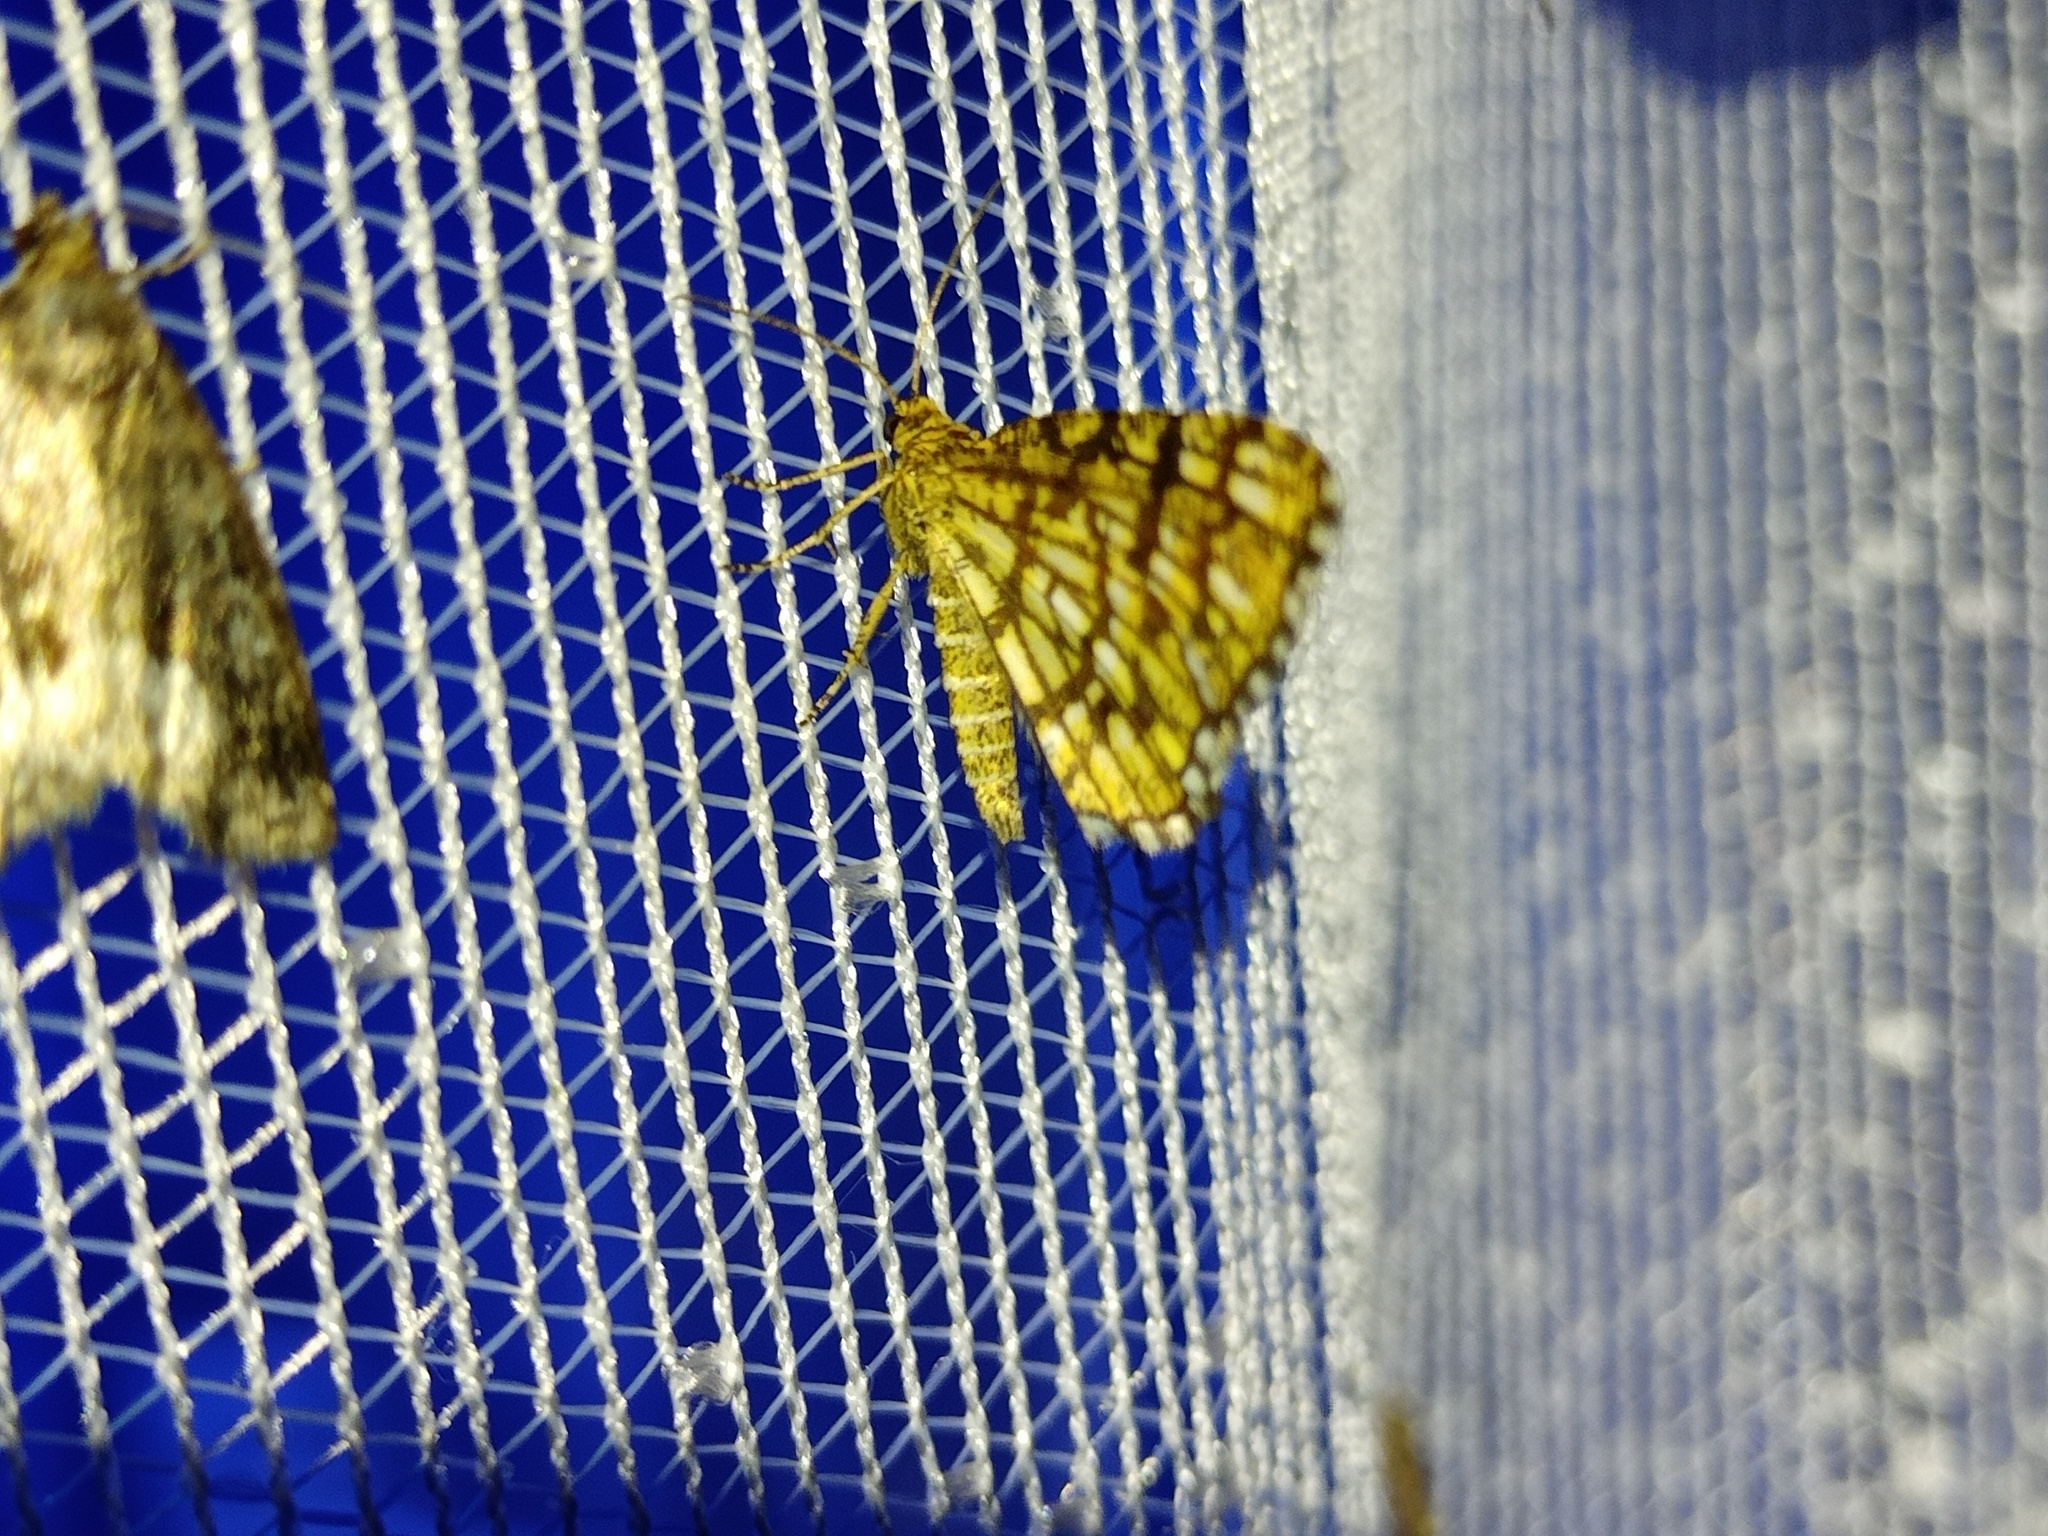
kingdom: Animalia
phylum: Arthropoda
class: Insecta
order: Lepidoptera
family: Geometridae
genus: Chiasmia
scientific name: Chiasmia clathrata
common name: Latticed heath
